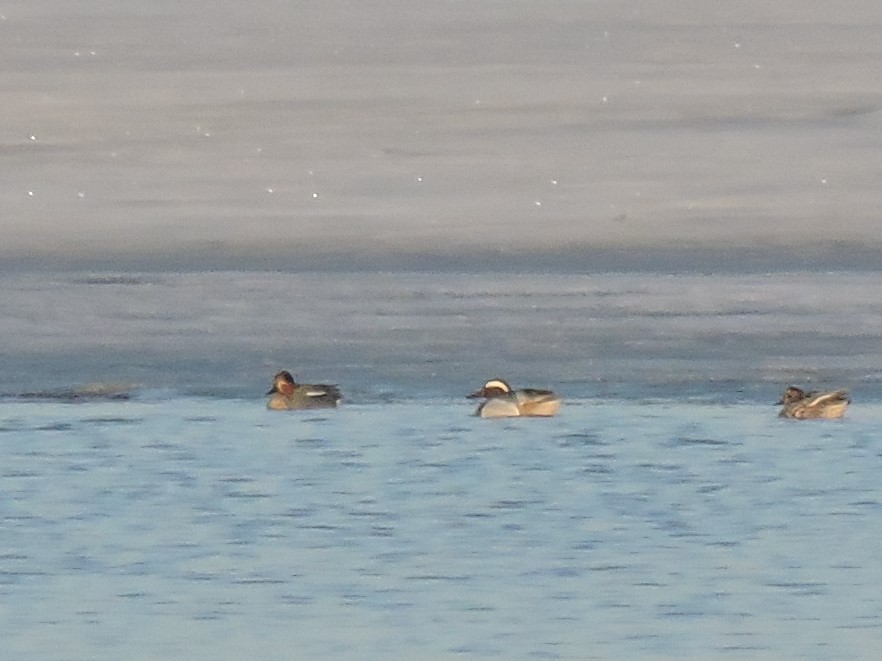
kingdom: Animalia
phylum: Chordata
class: Aves
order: Anseriformes
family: Anatidae
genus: Spatula
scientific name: Spatula querquedula
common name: Garganey
